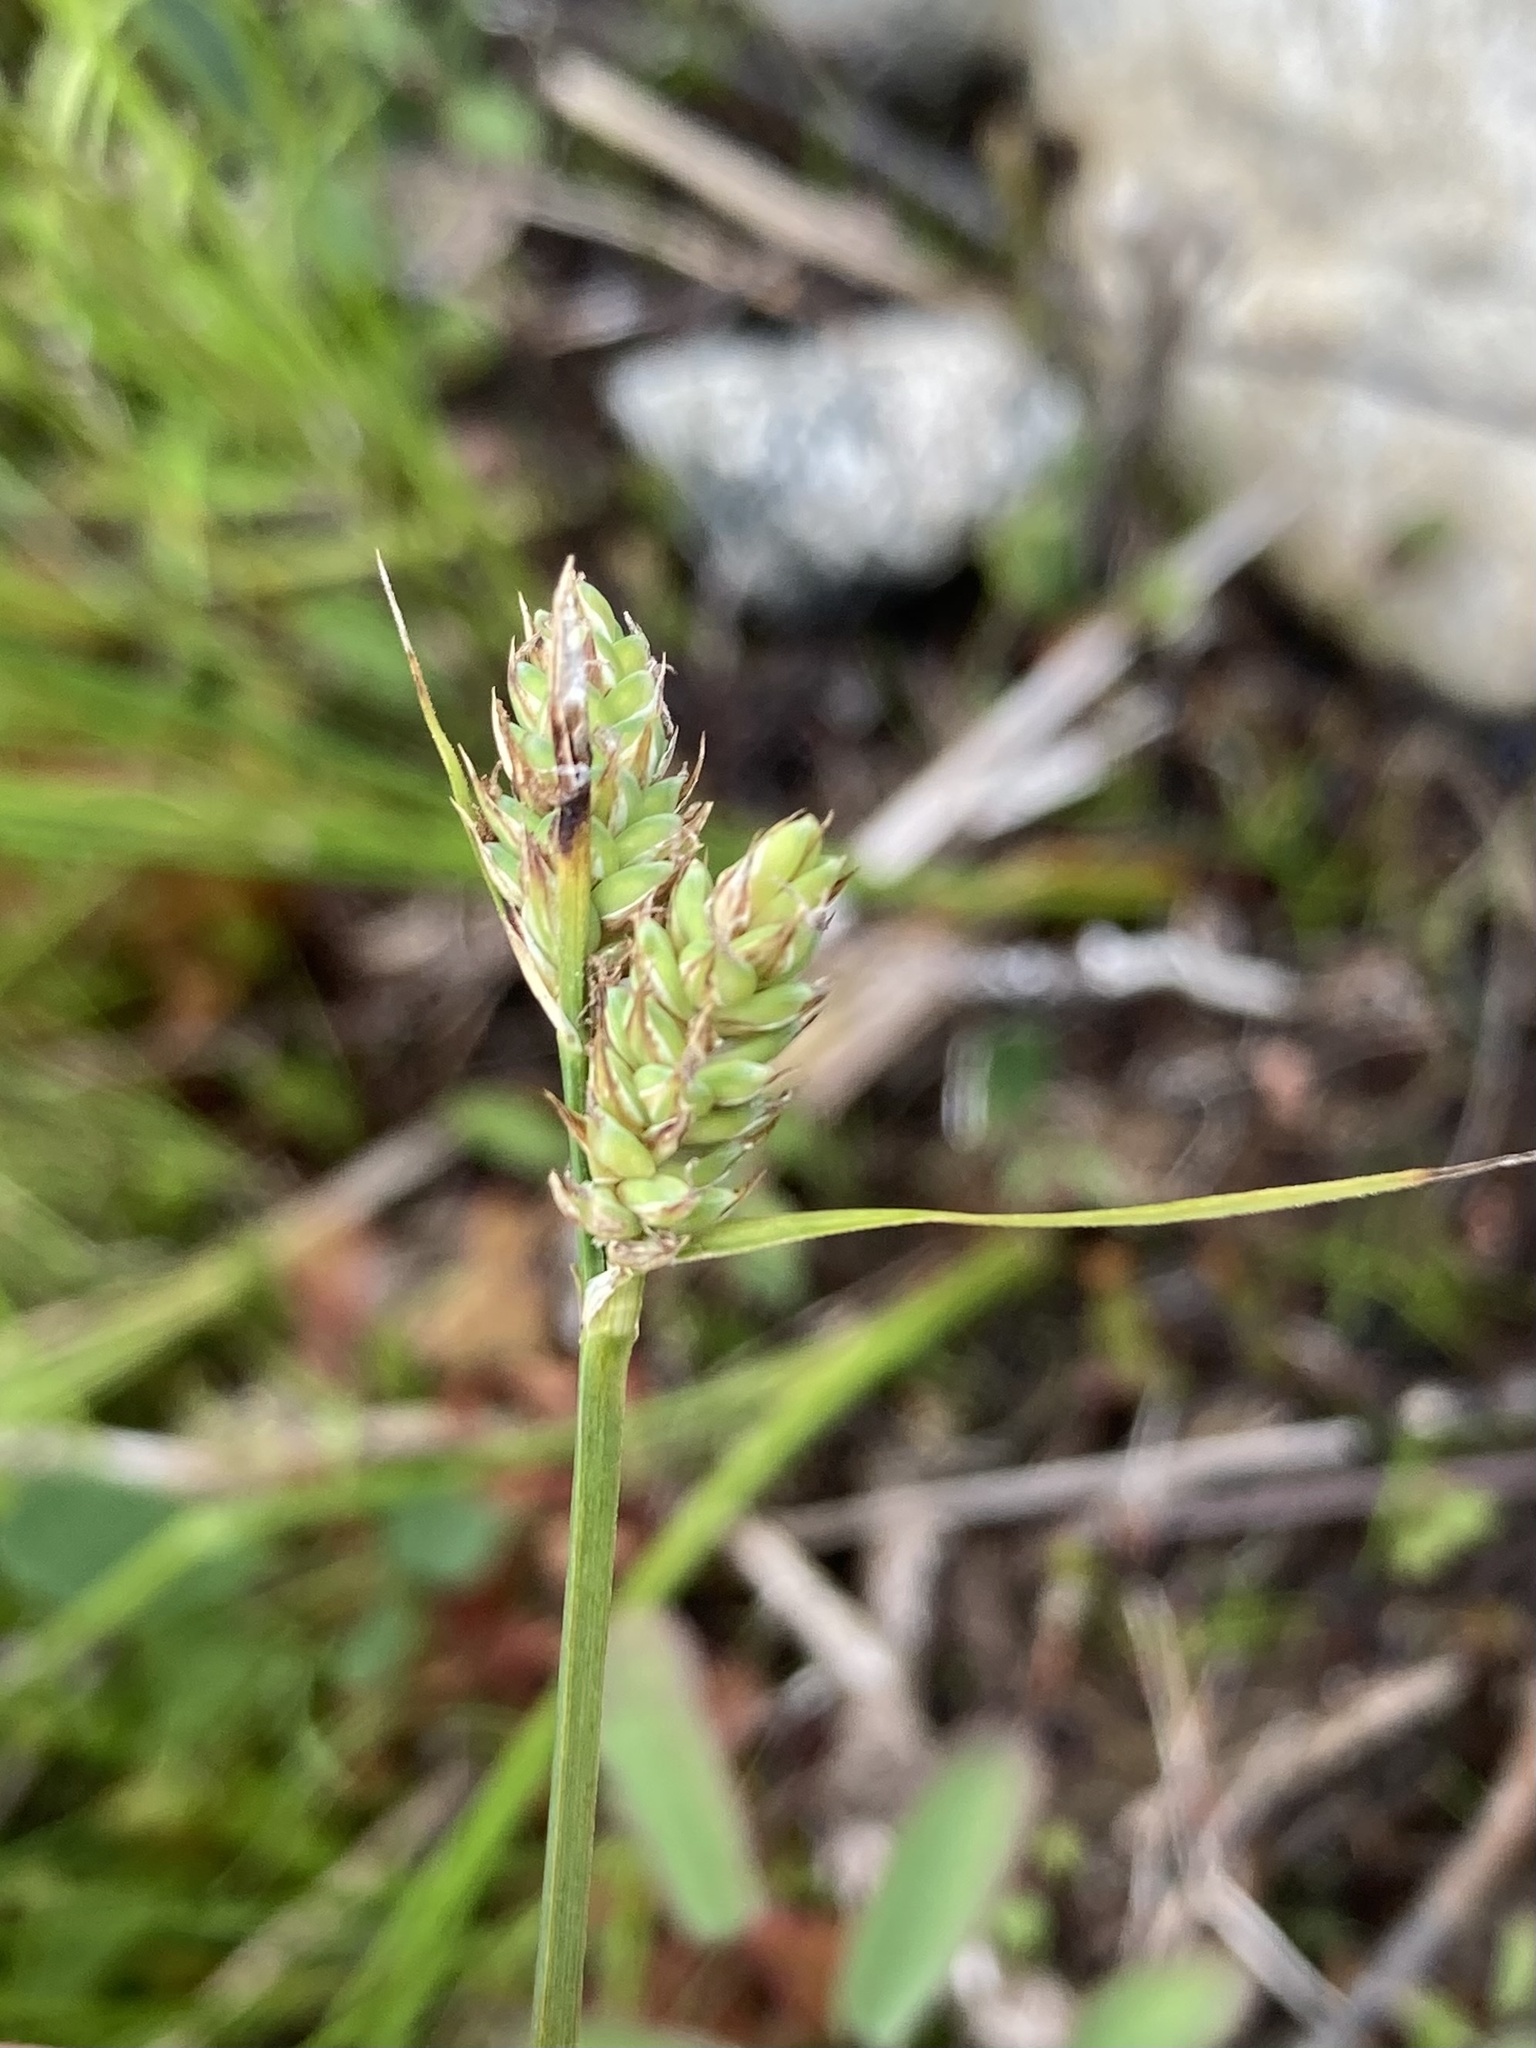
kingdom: Plantae
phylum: Tracheophyta
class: Liliopsida
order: Poales
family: Cyperaceae
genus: Carex
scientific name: Carex buxbaumii
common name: Club sedge
